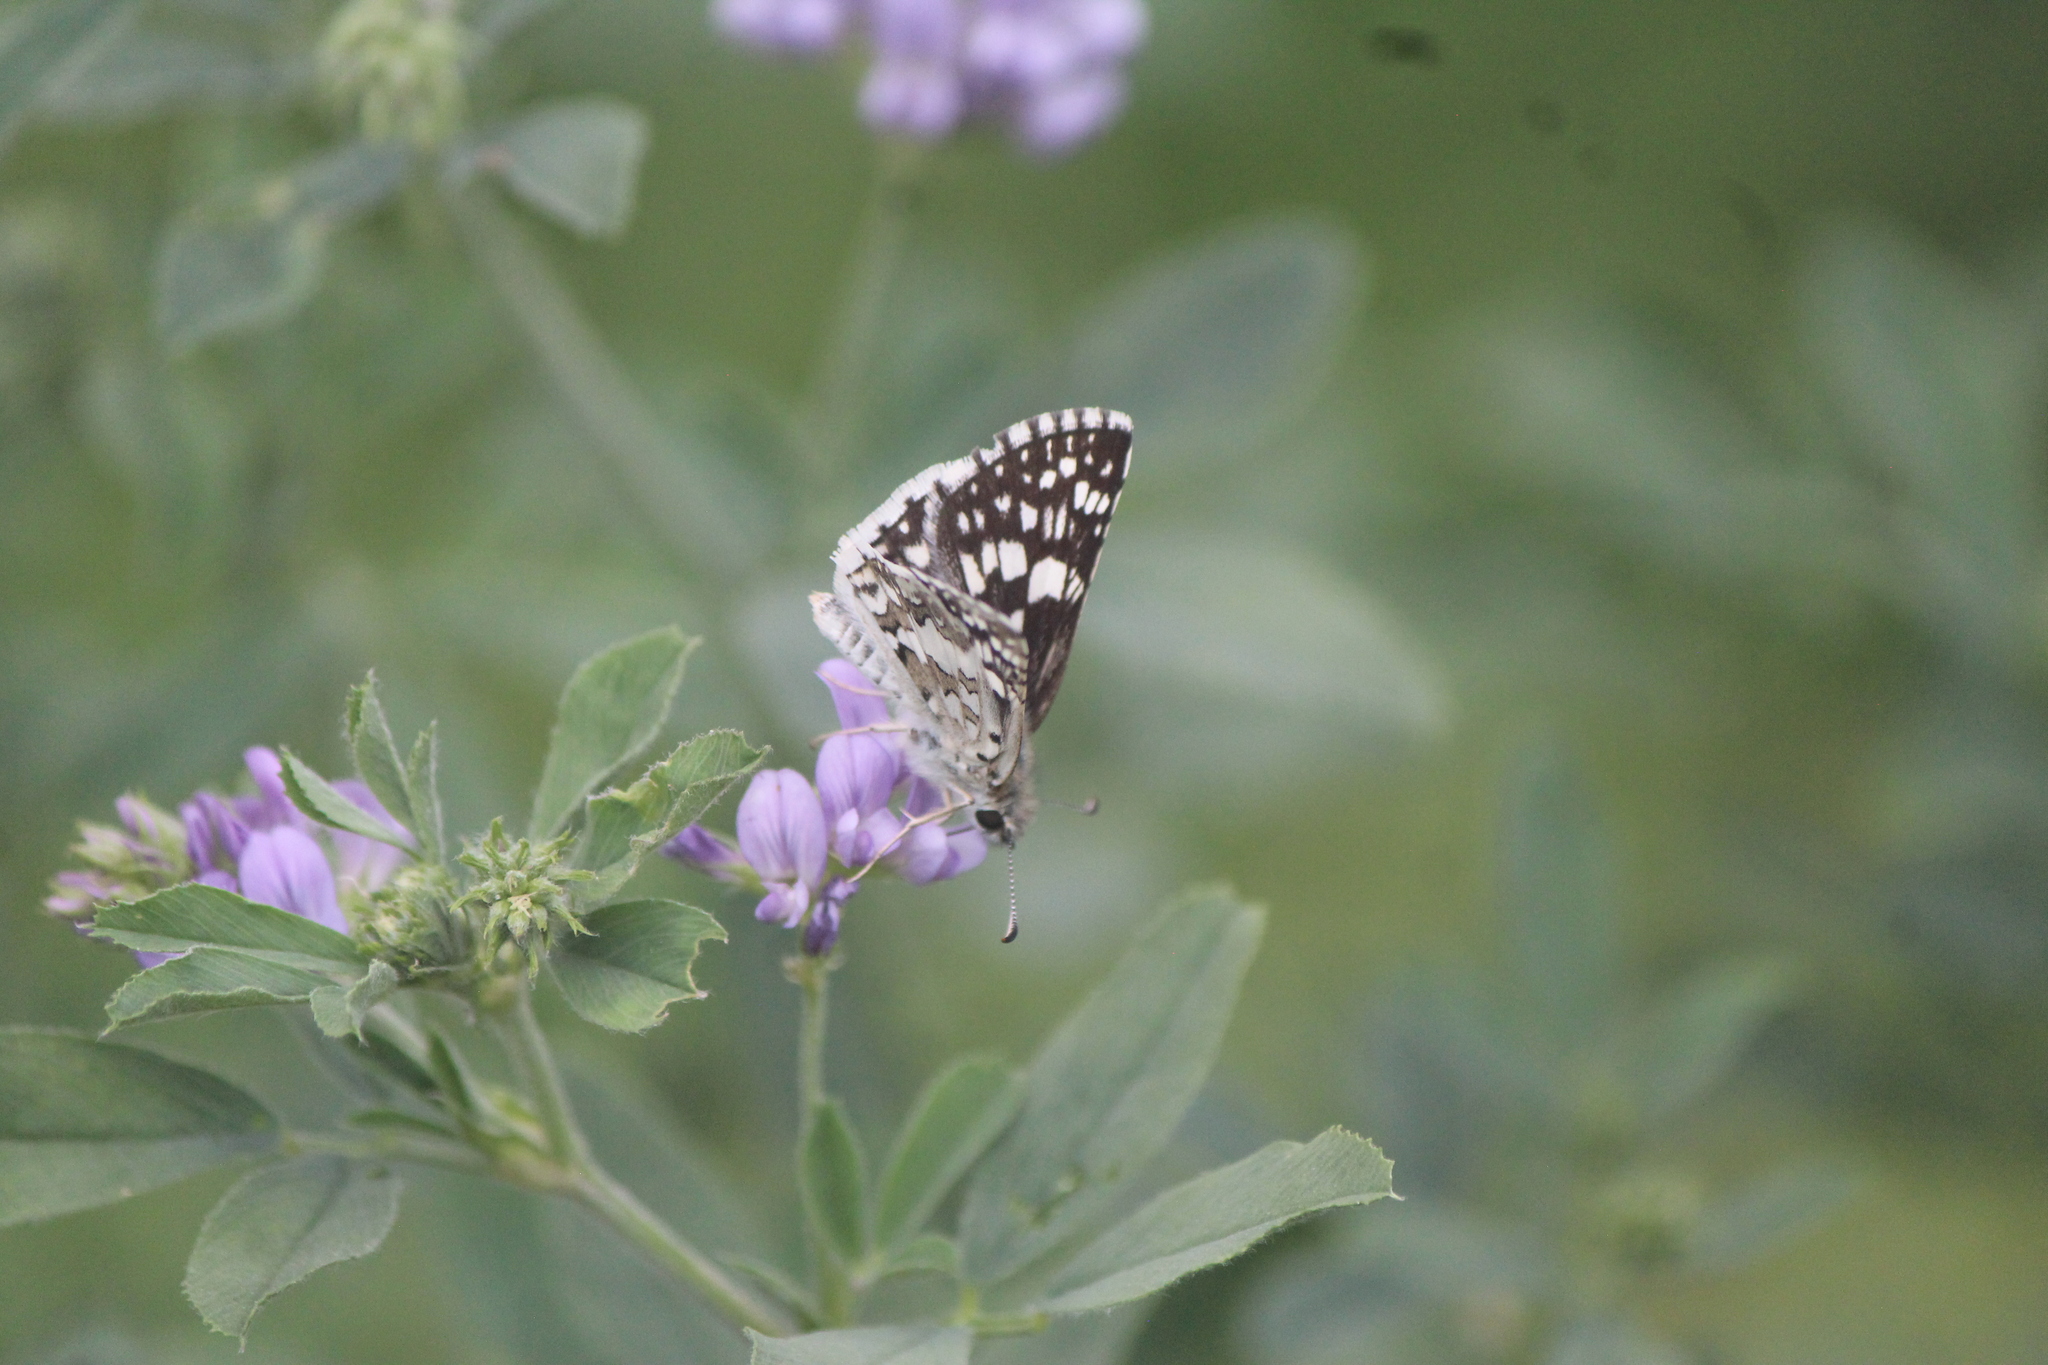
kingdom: Animalia
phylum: Arthropoda
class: Insecta
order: Lepidoptera
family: Hesperiidae
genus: Burnsius
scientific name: Burnsius communis
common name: Common checkered-skipper
